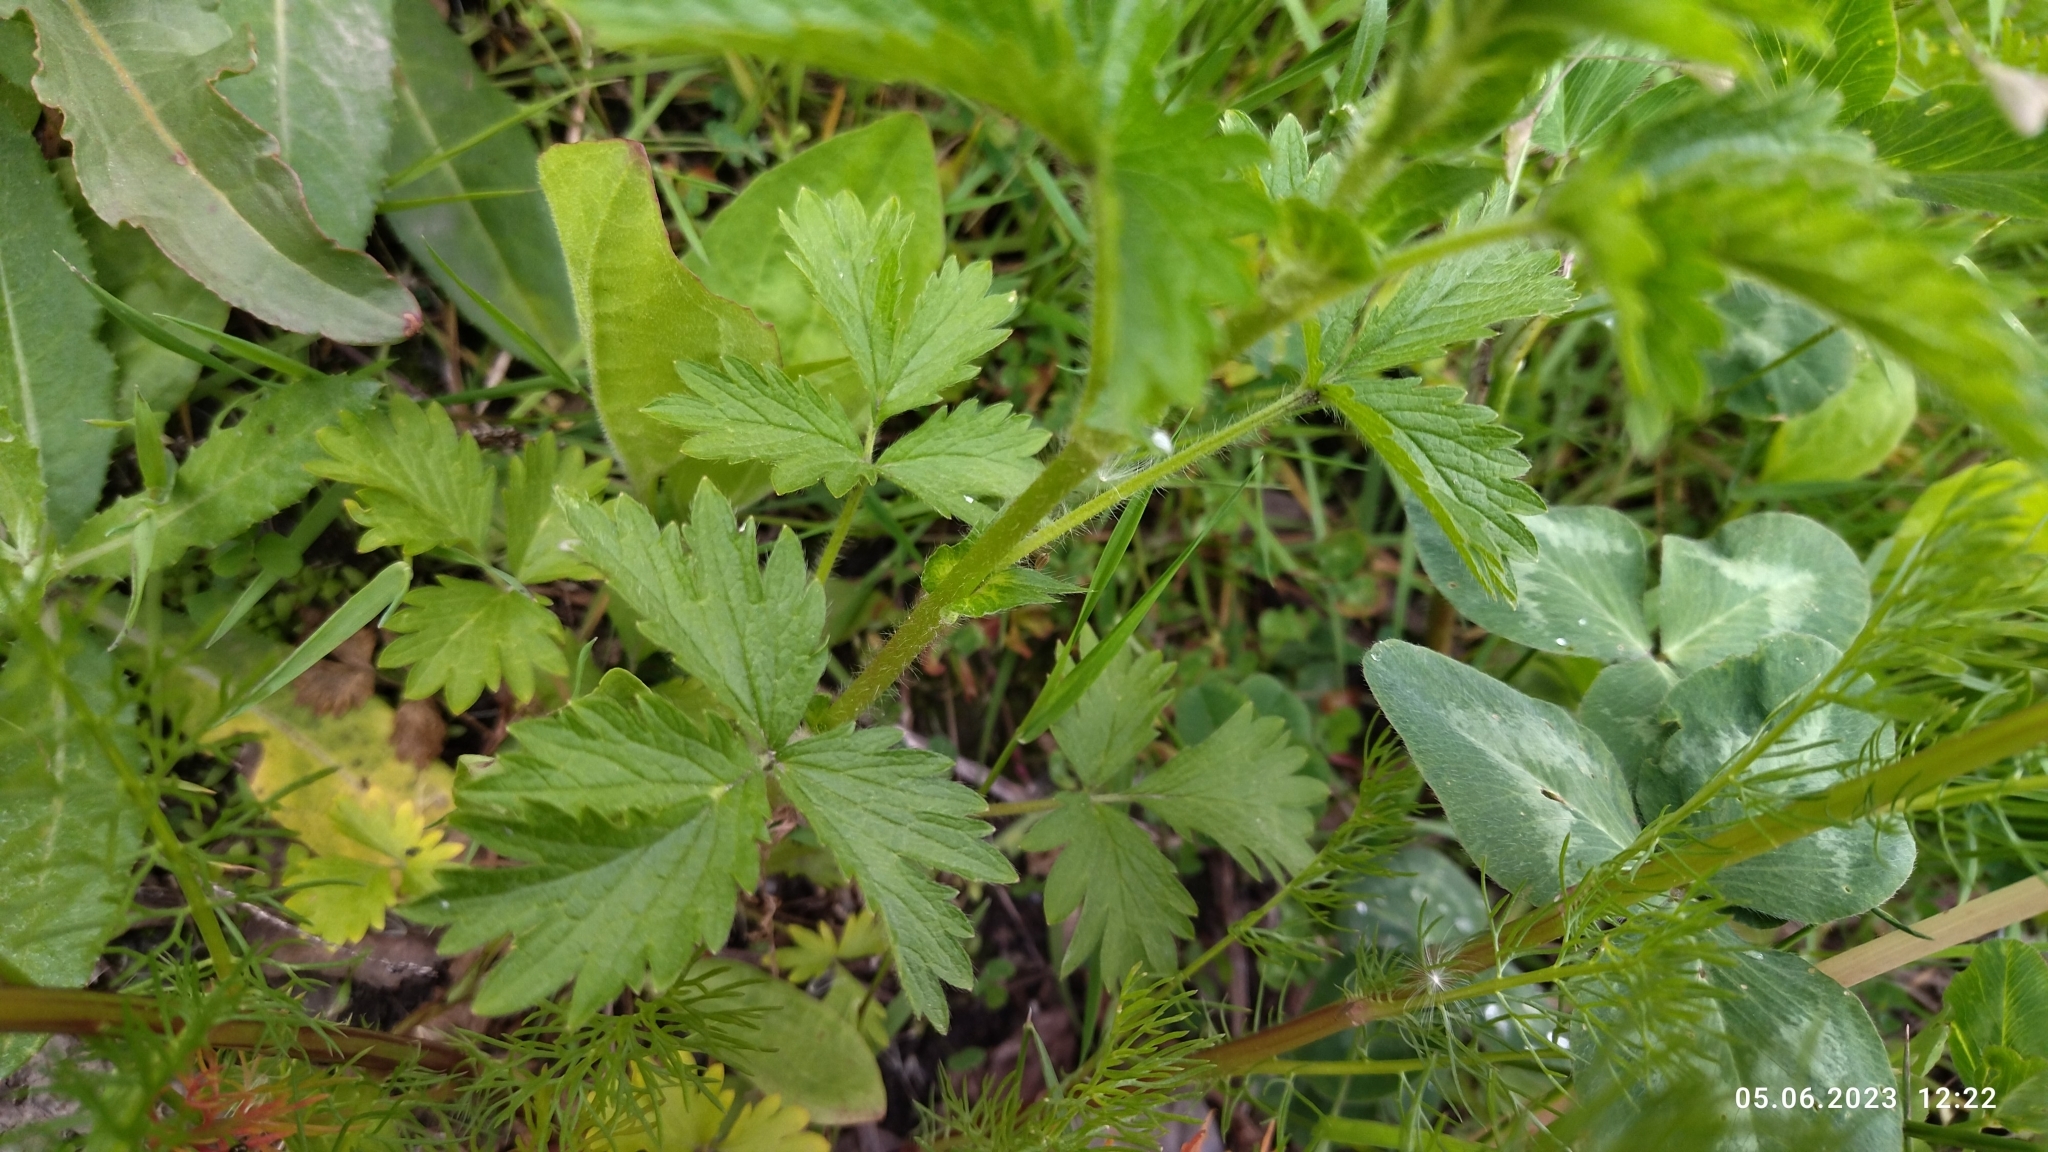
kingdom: Plantae
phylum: Tracheophyta
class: Magnoliopsida
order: Rosales
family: Rosaceae
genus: Potentilla
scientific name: Potentilla norvegica
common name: Ternate-leaved cinquefoil
